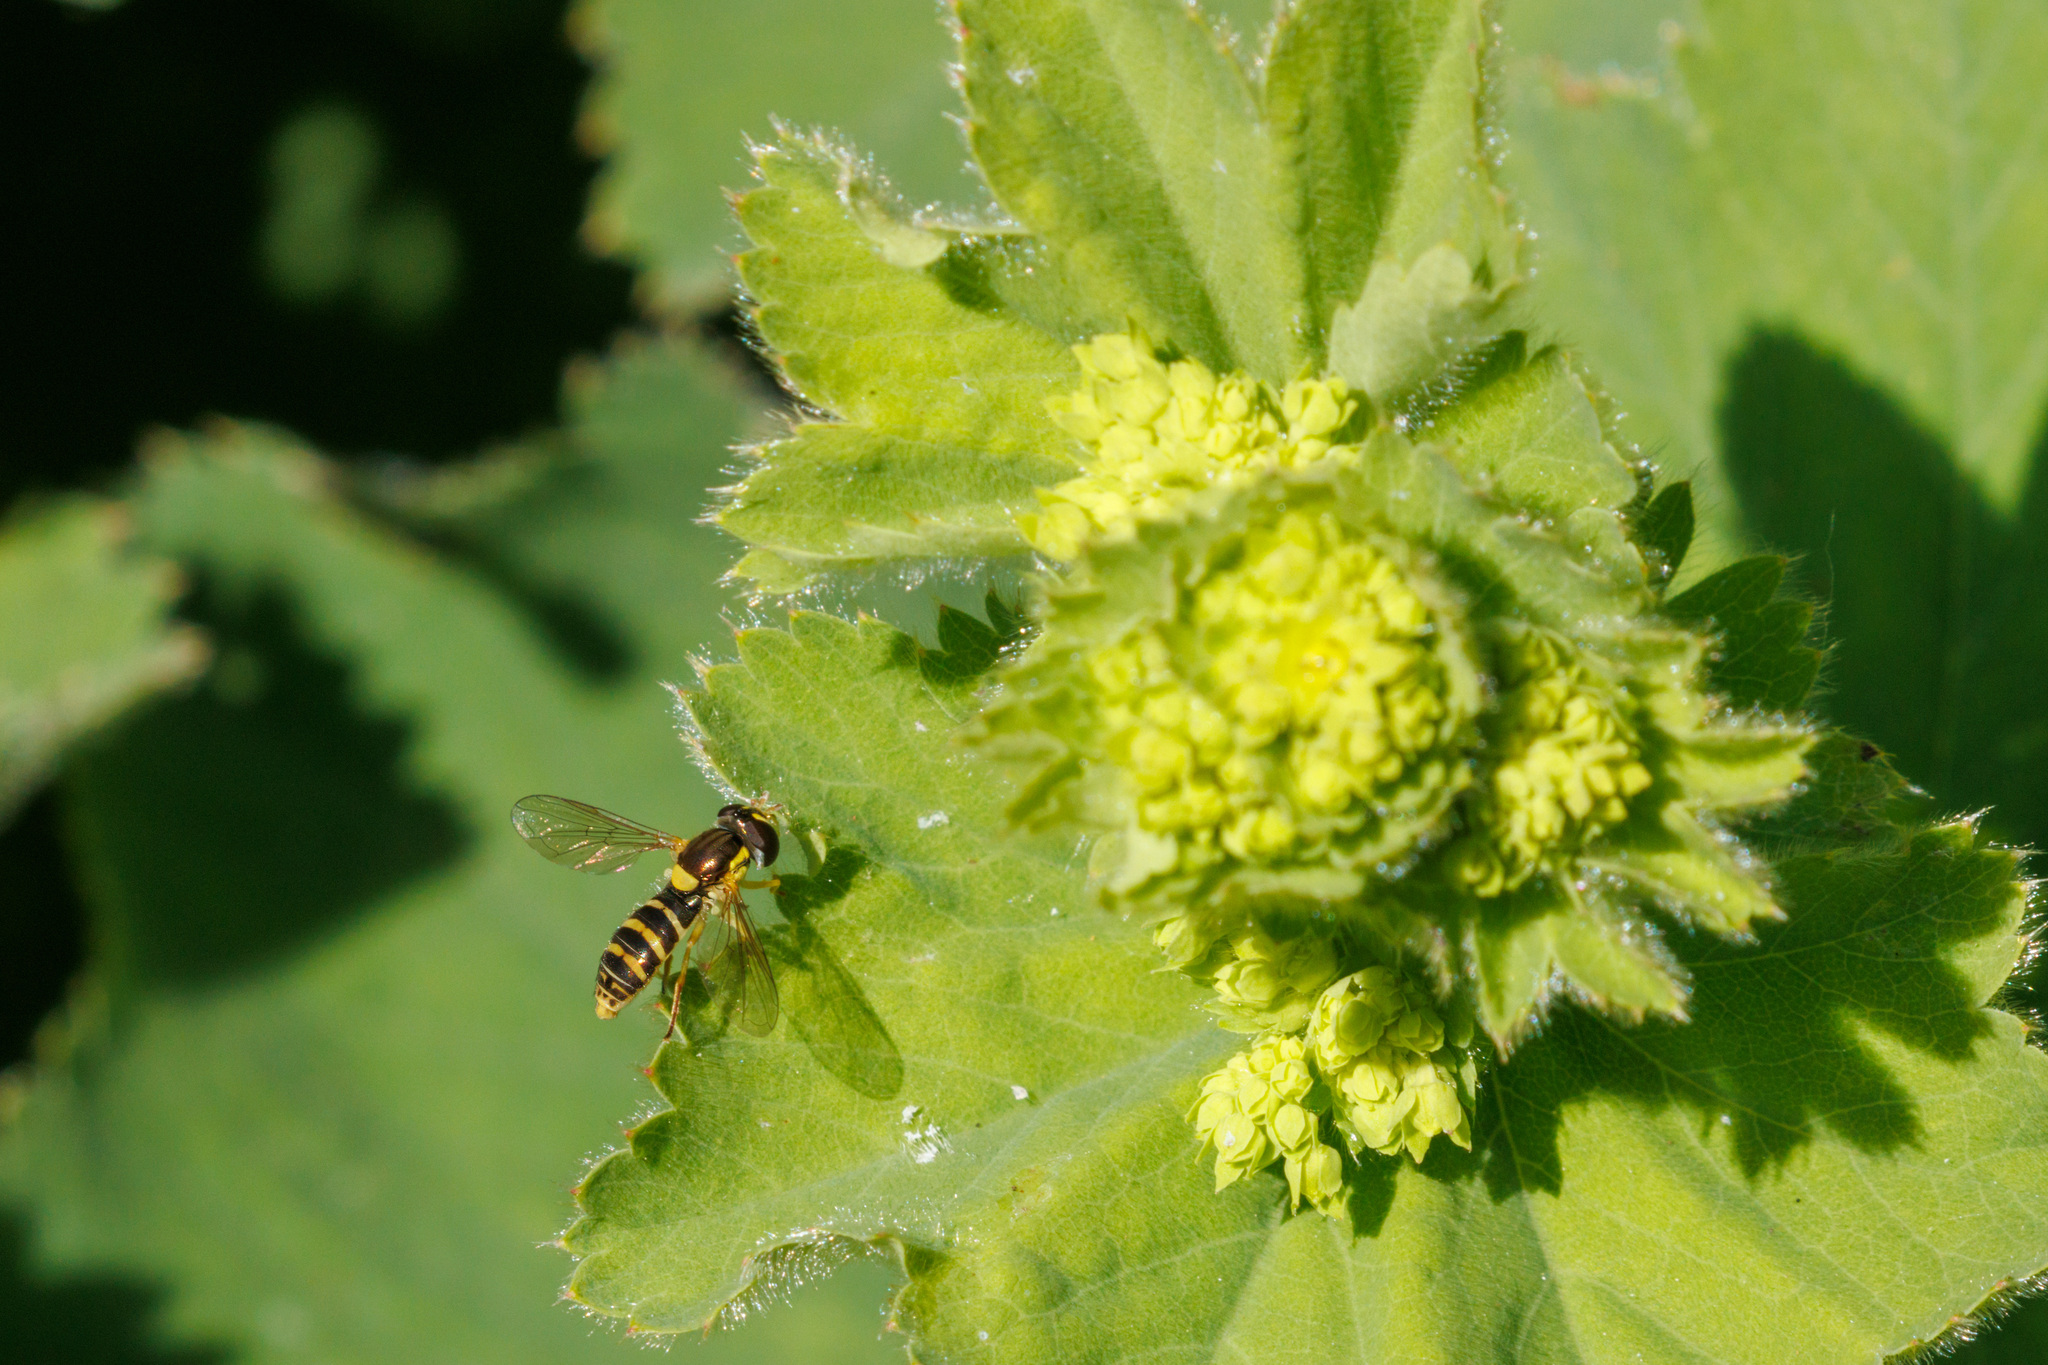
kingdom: Animalia
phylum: Arthropoda
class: Insecta
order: Diptera
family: Syrphidae
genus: Sphaerophoria
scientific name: Sphaerophoria sulphuripes
